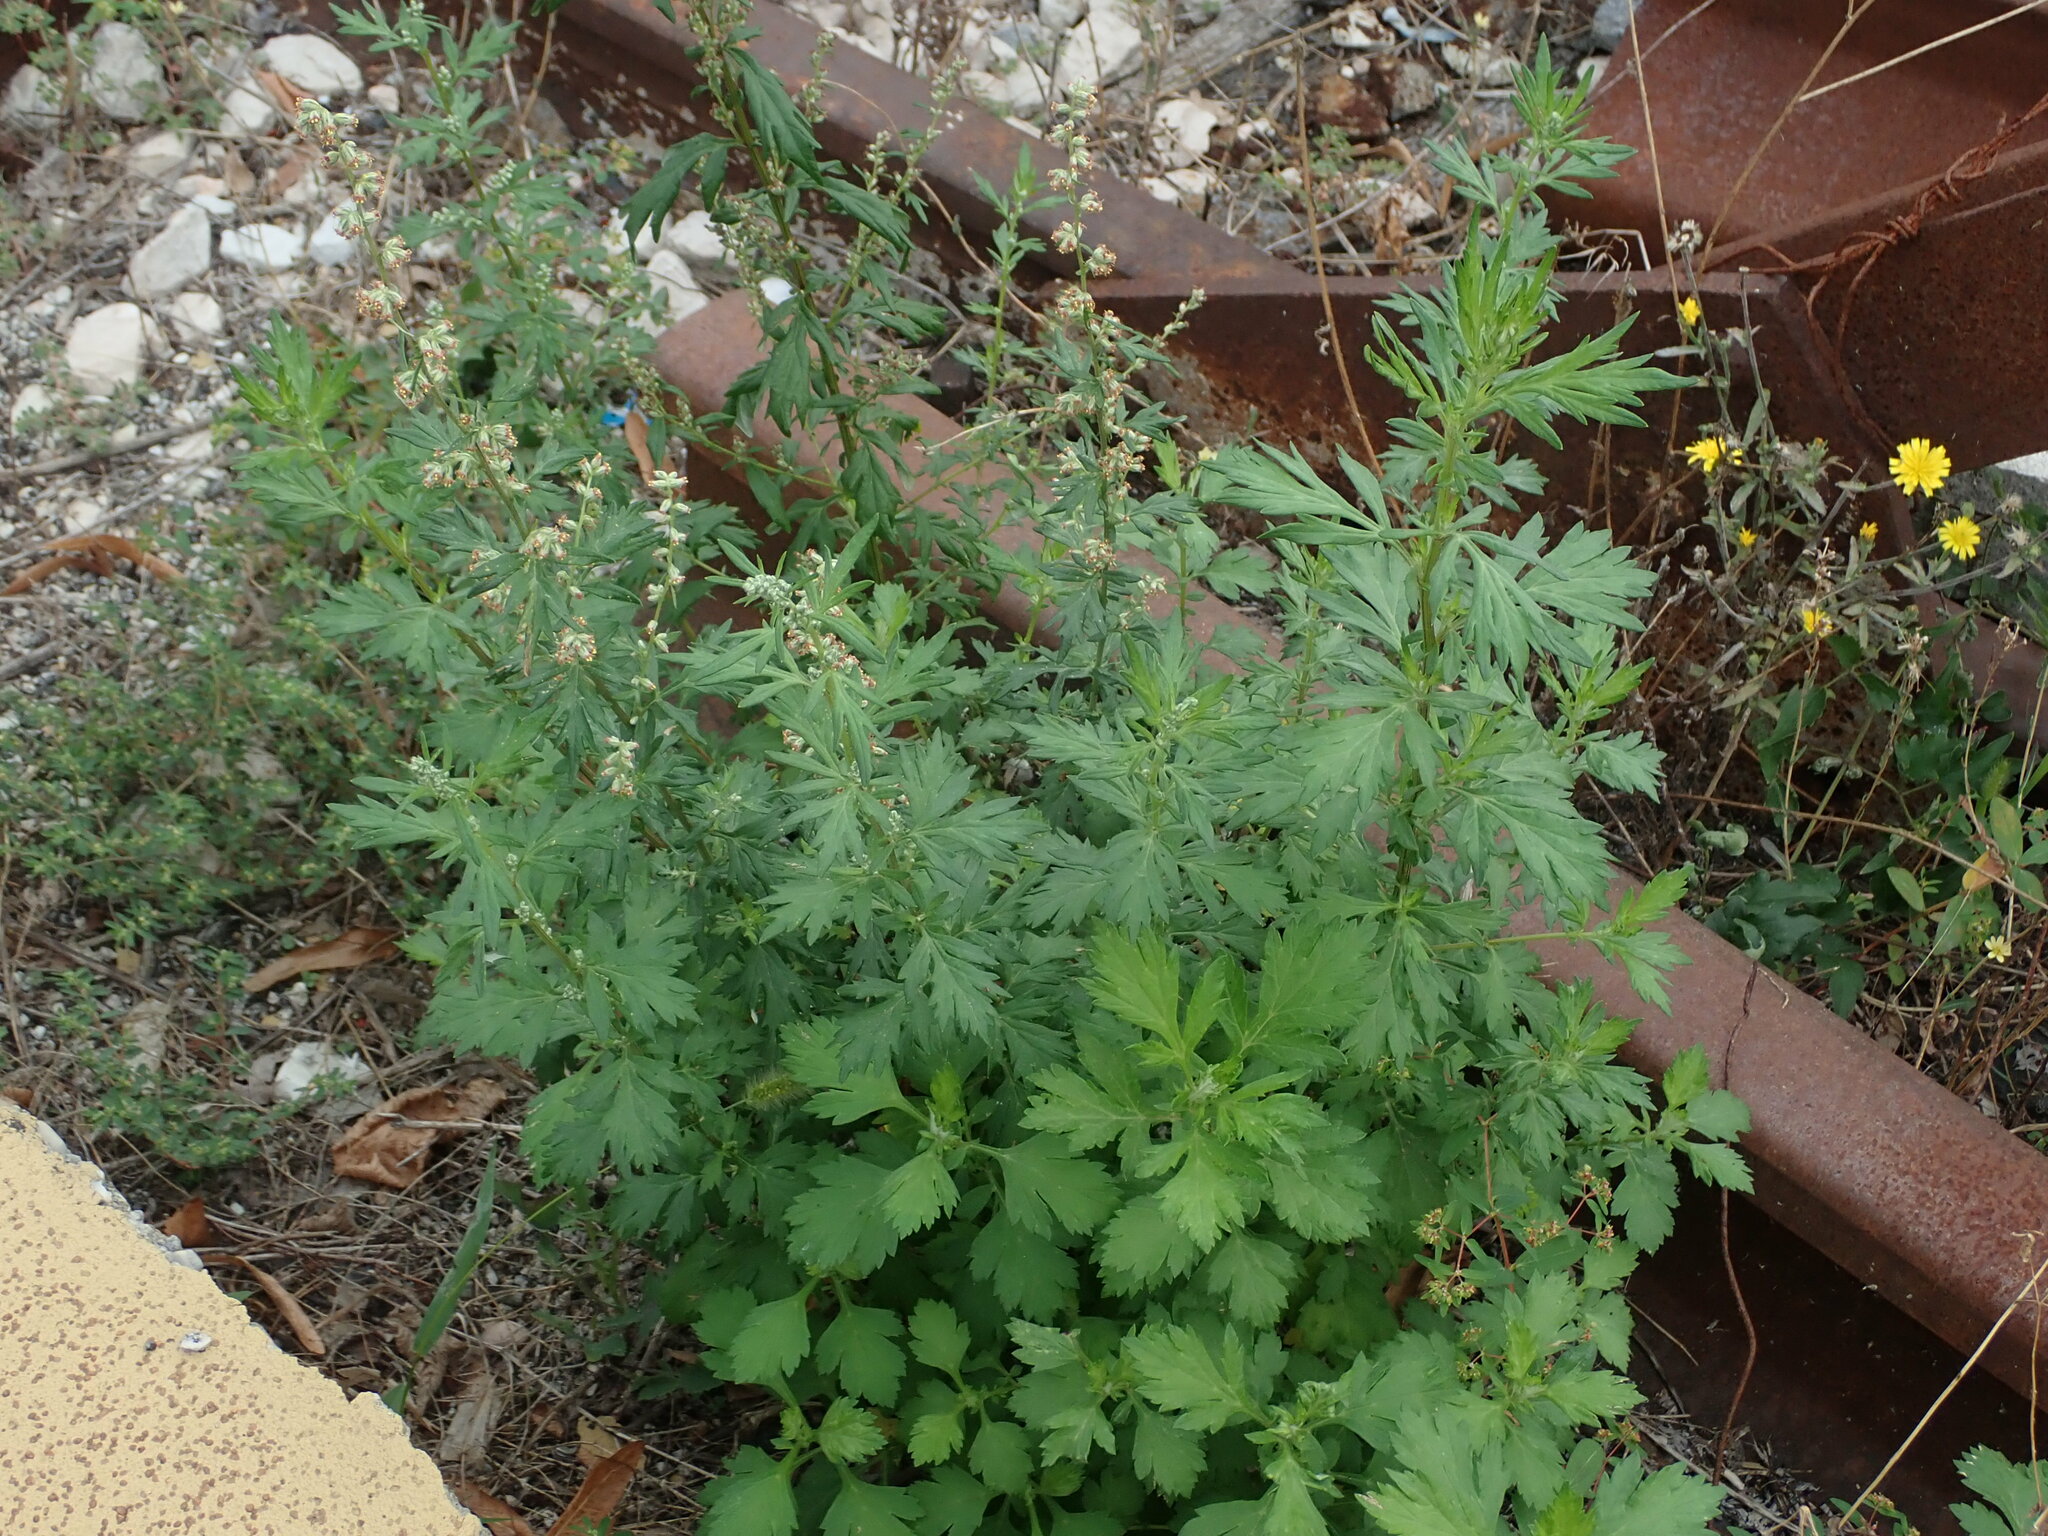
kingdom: Plantae
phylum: Tracheophyta
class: Magnoliopsida
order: Asterales
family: Asteraceae
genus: Artemisia
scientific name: Artemisia vulgaris
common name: Mugwort
